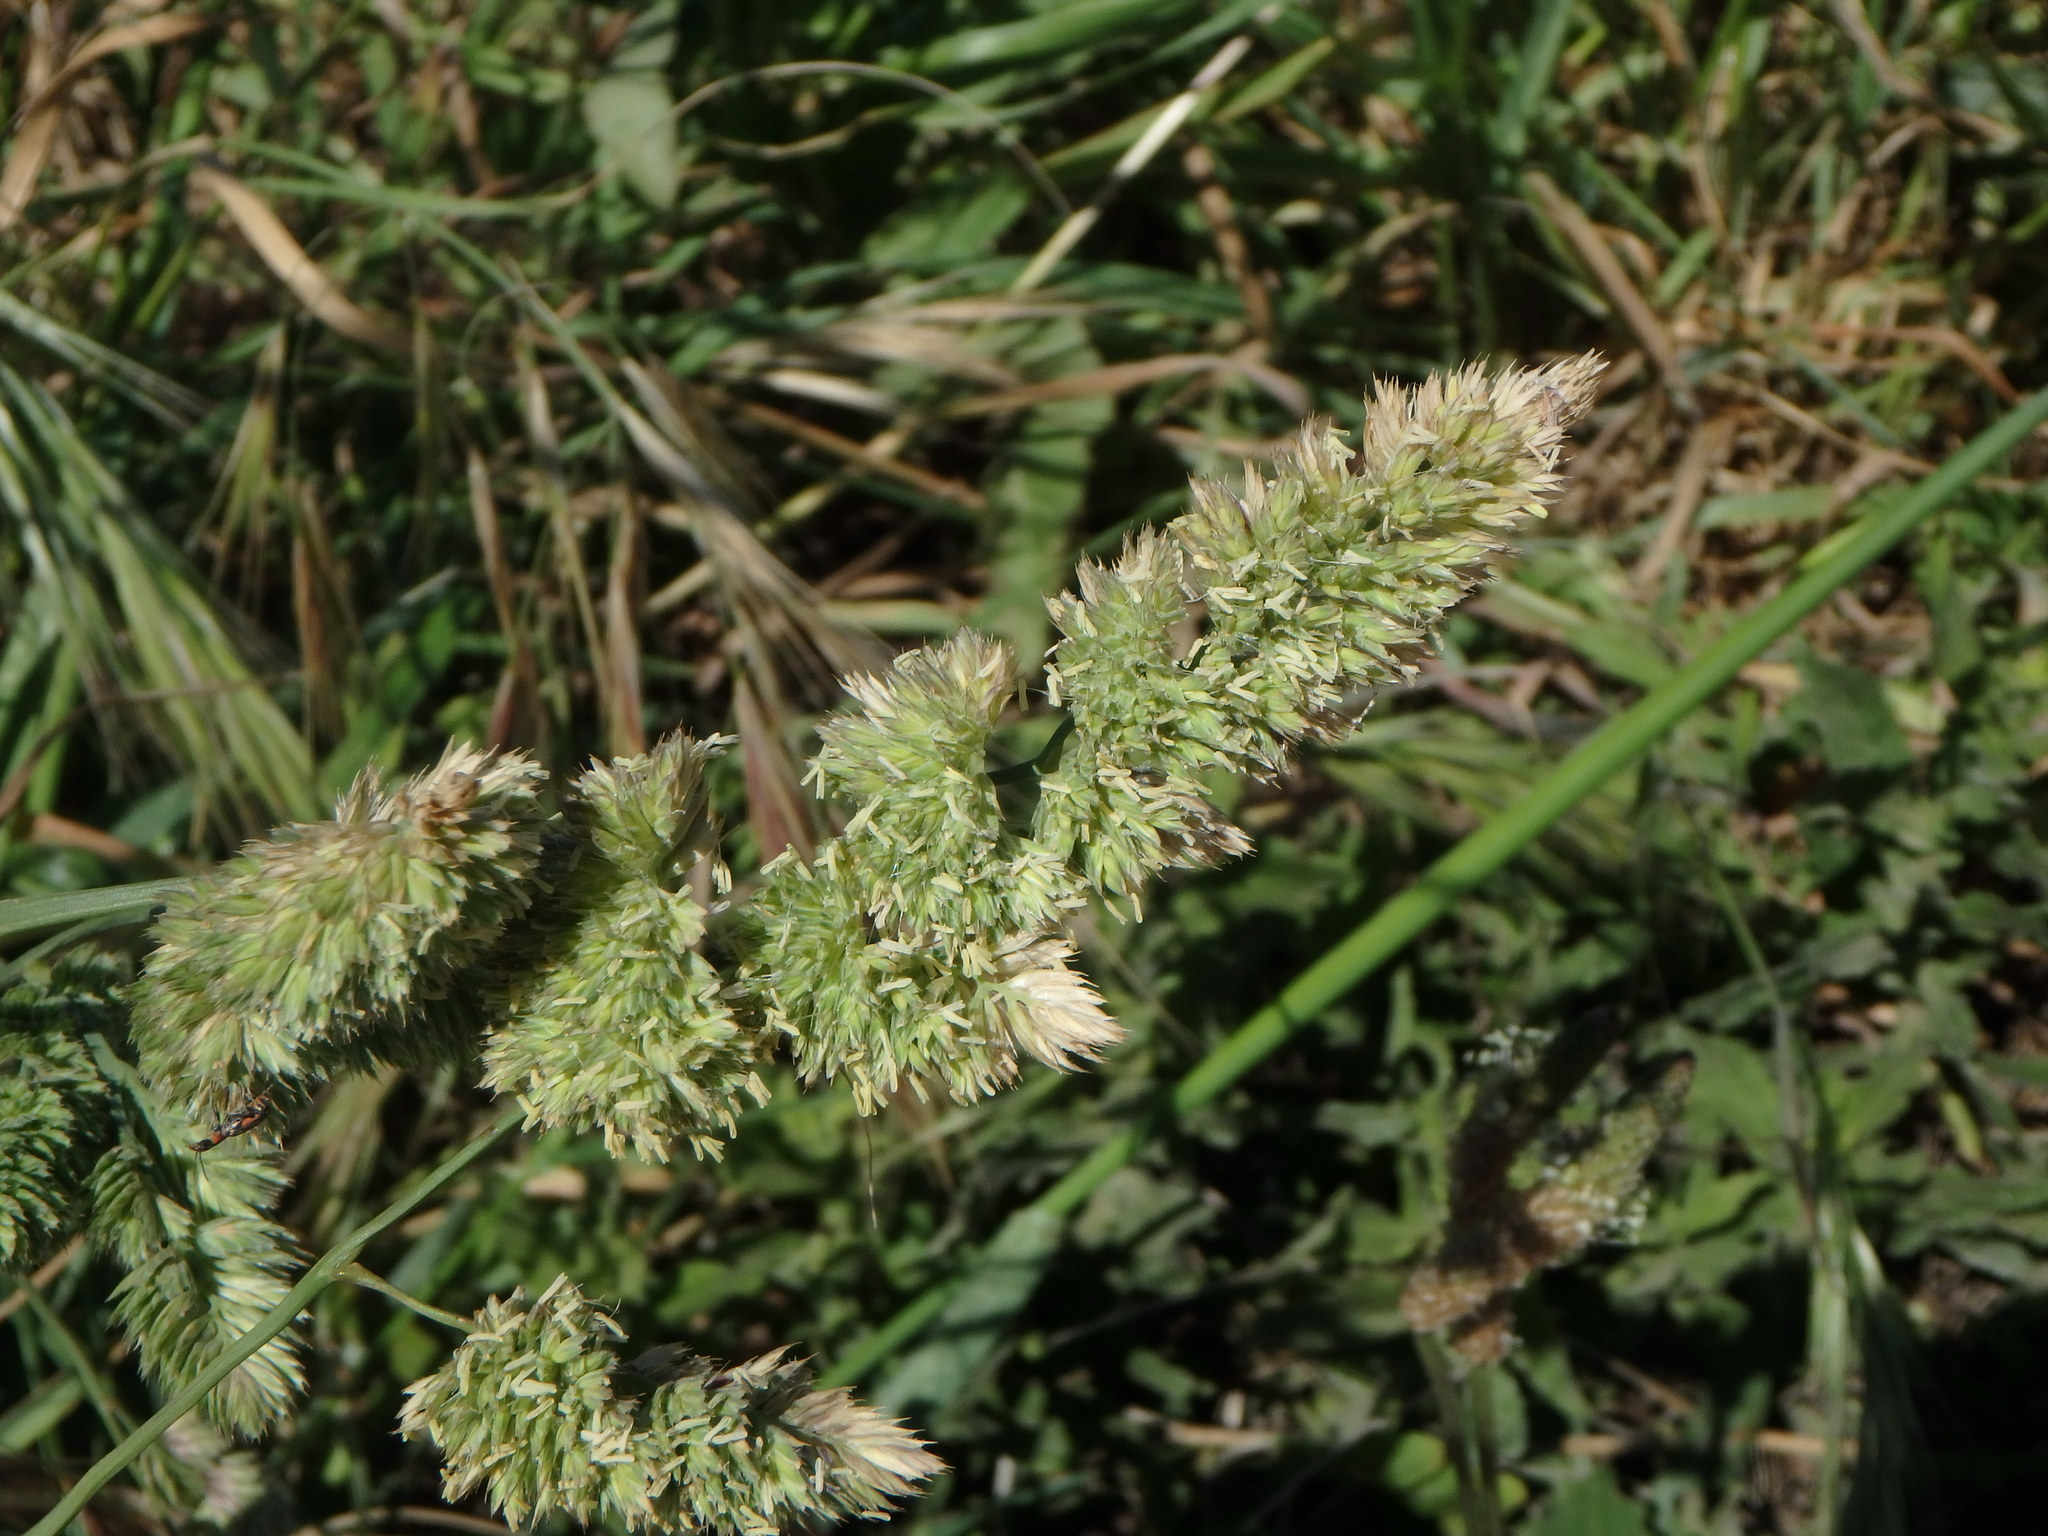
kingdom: Plantae
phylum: Tracheophyta
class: Liliopsida
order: Poales
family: Poaceae
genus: Dactylis
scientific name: Dactylis glomerata
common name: Orchardgrass
